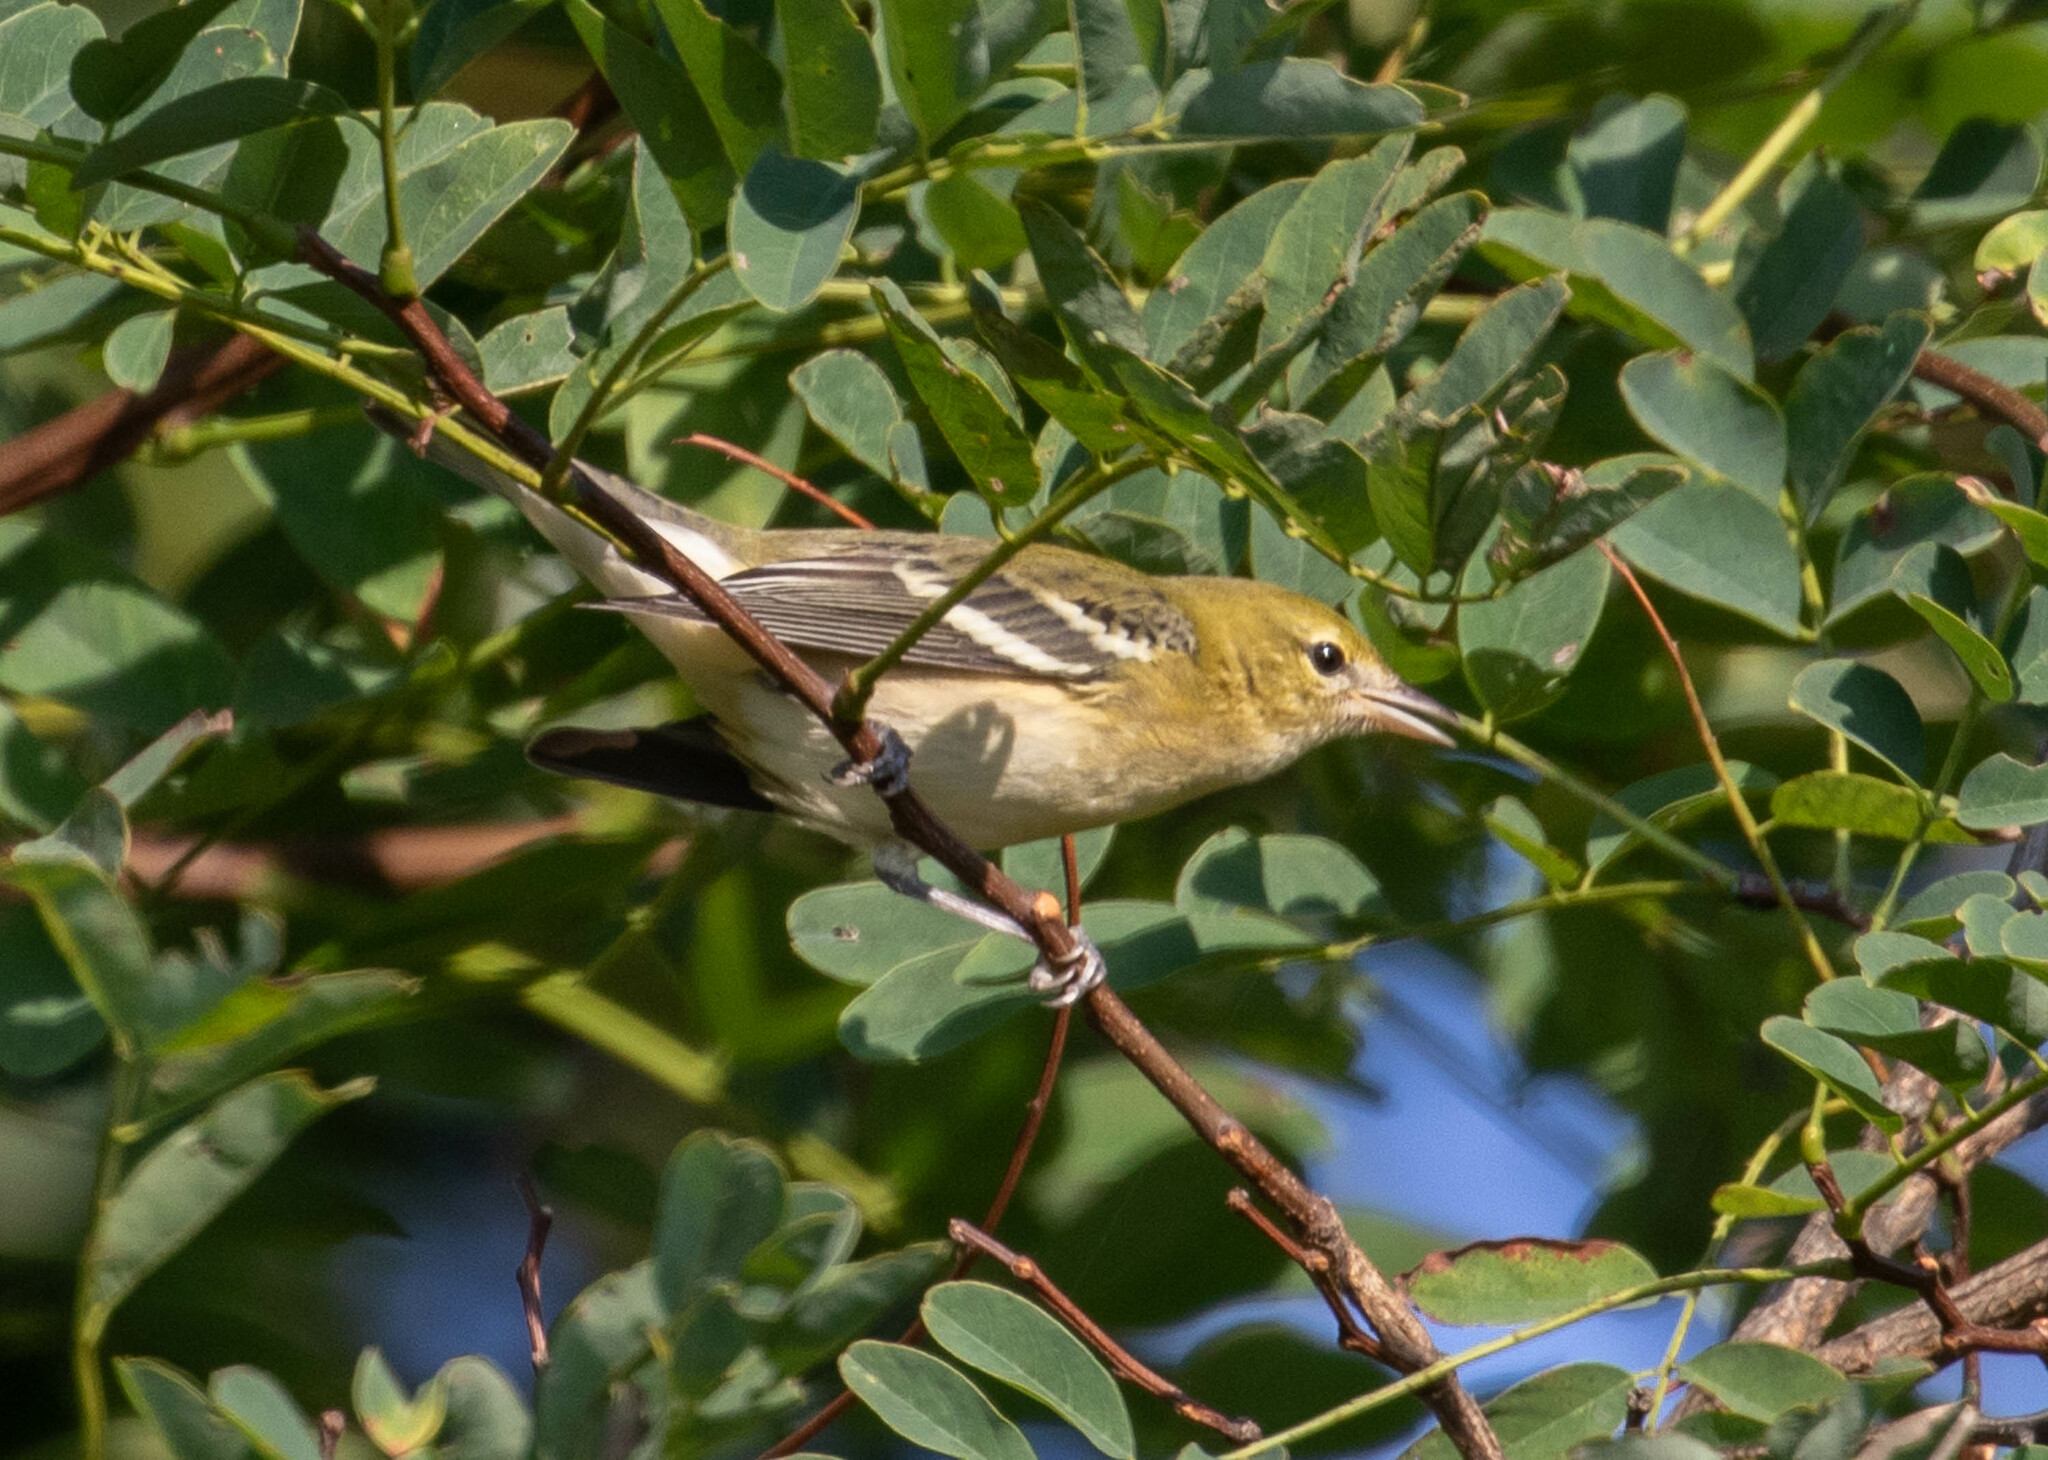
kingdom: Animalia
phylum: Chordata
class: Aves
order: Passeriformes
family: Parulidae
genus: Setophaga
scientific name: Setophaga castanea
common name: Bay-breasted warbler
